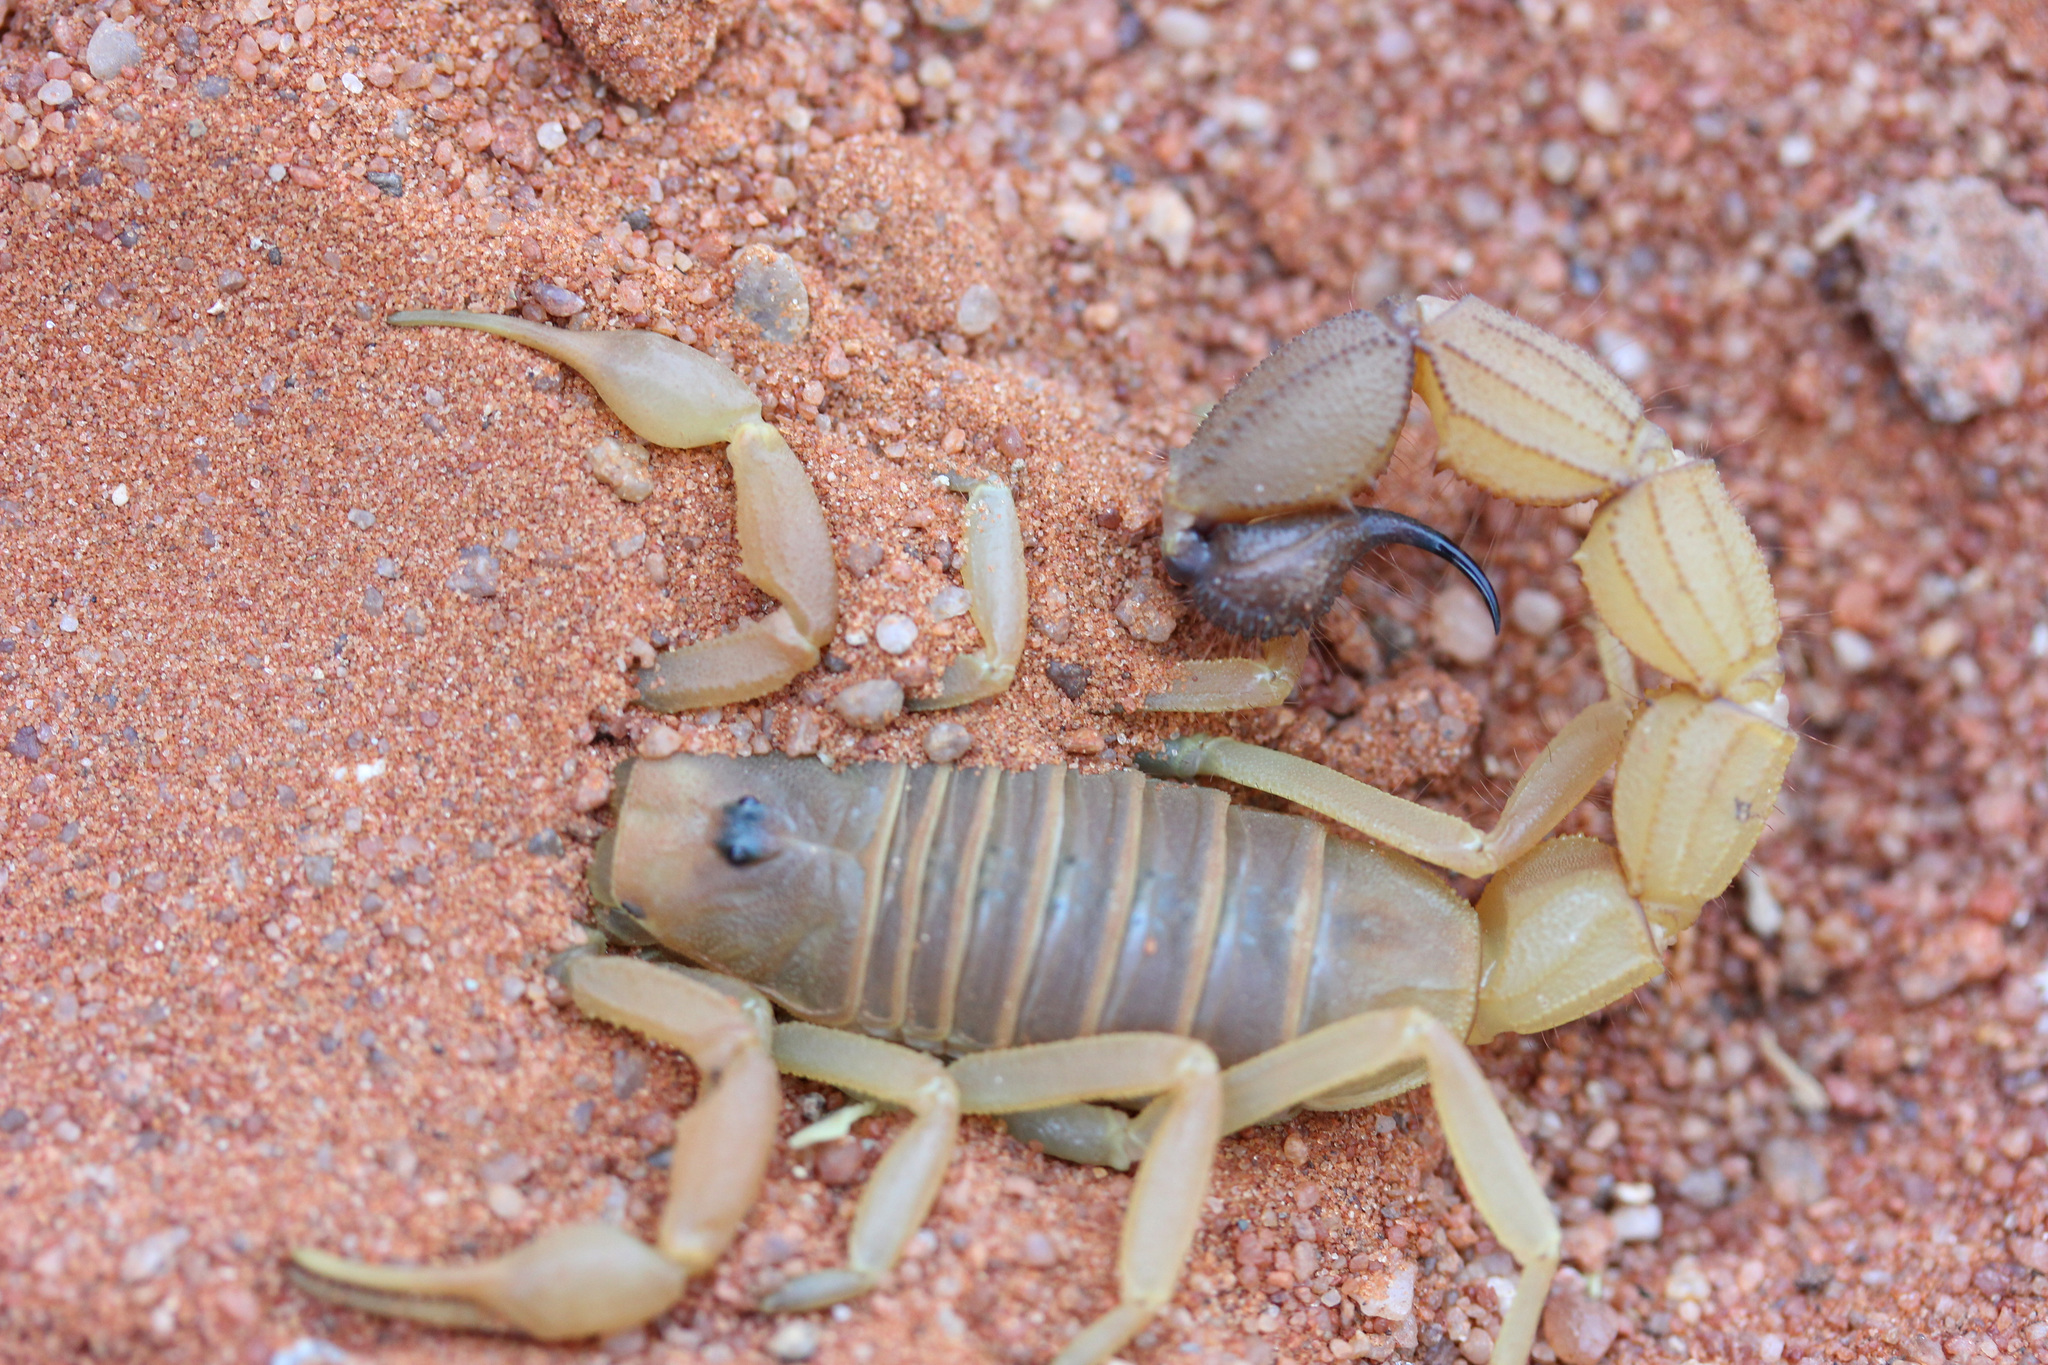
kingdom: Animalia
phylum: Arthropoda
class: Arachnida
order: Scorpiones
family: Buthidae
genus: Parabuthus
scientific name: Parabuthus raudus
